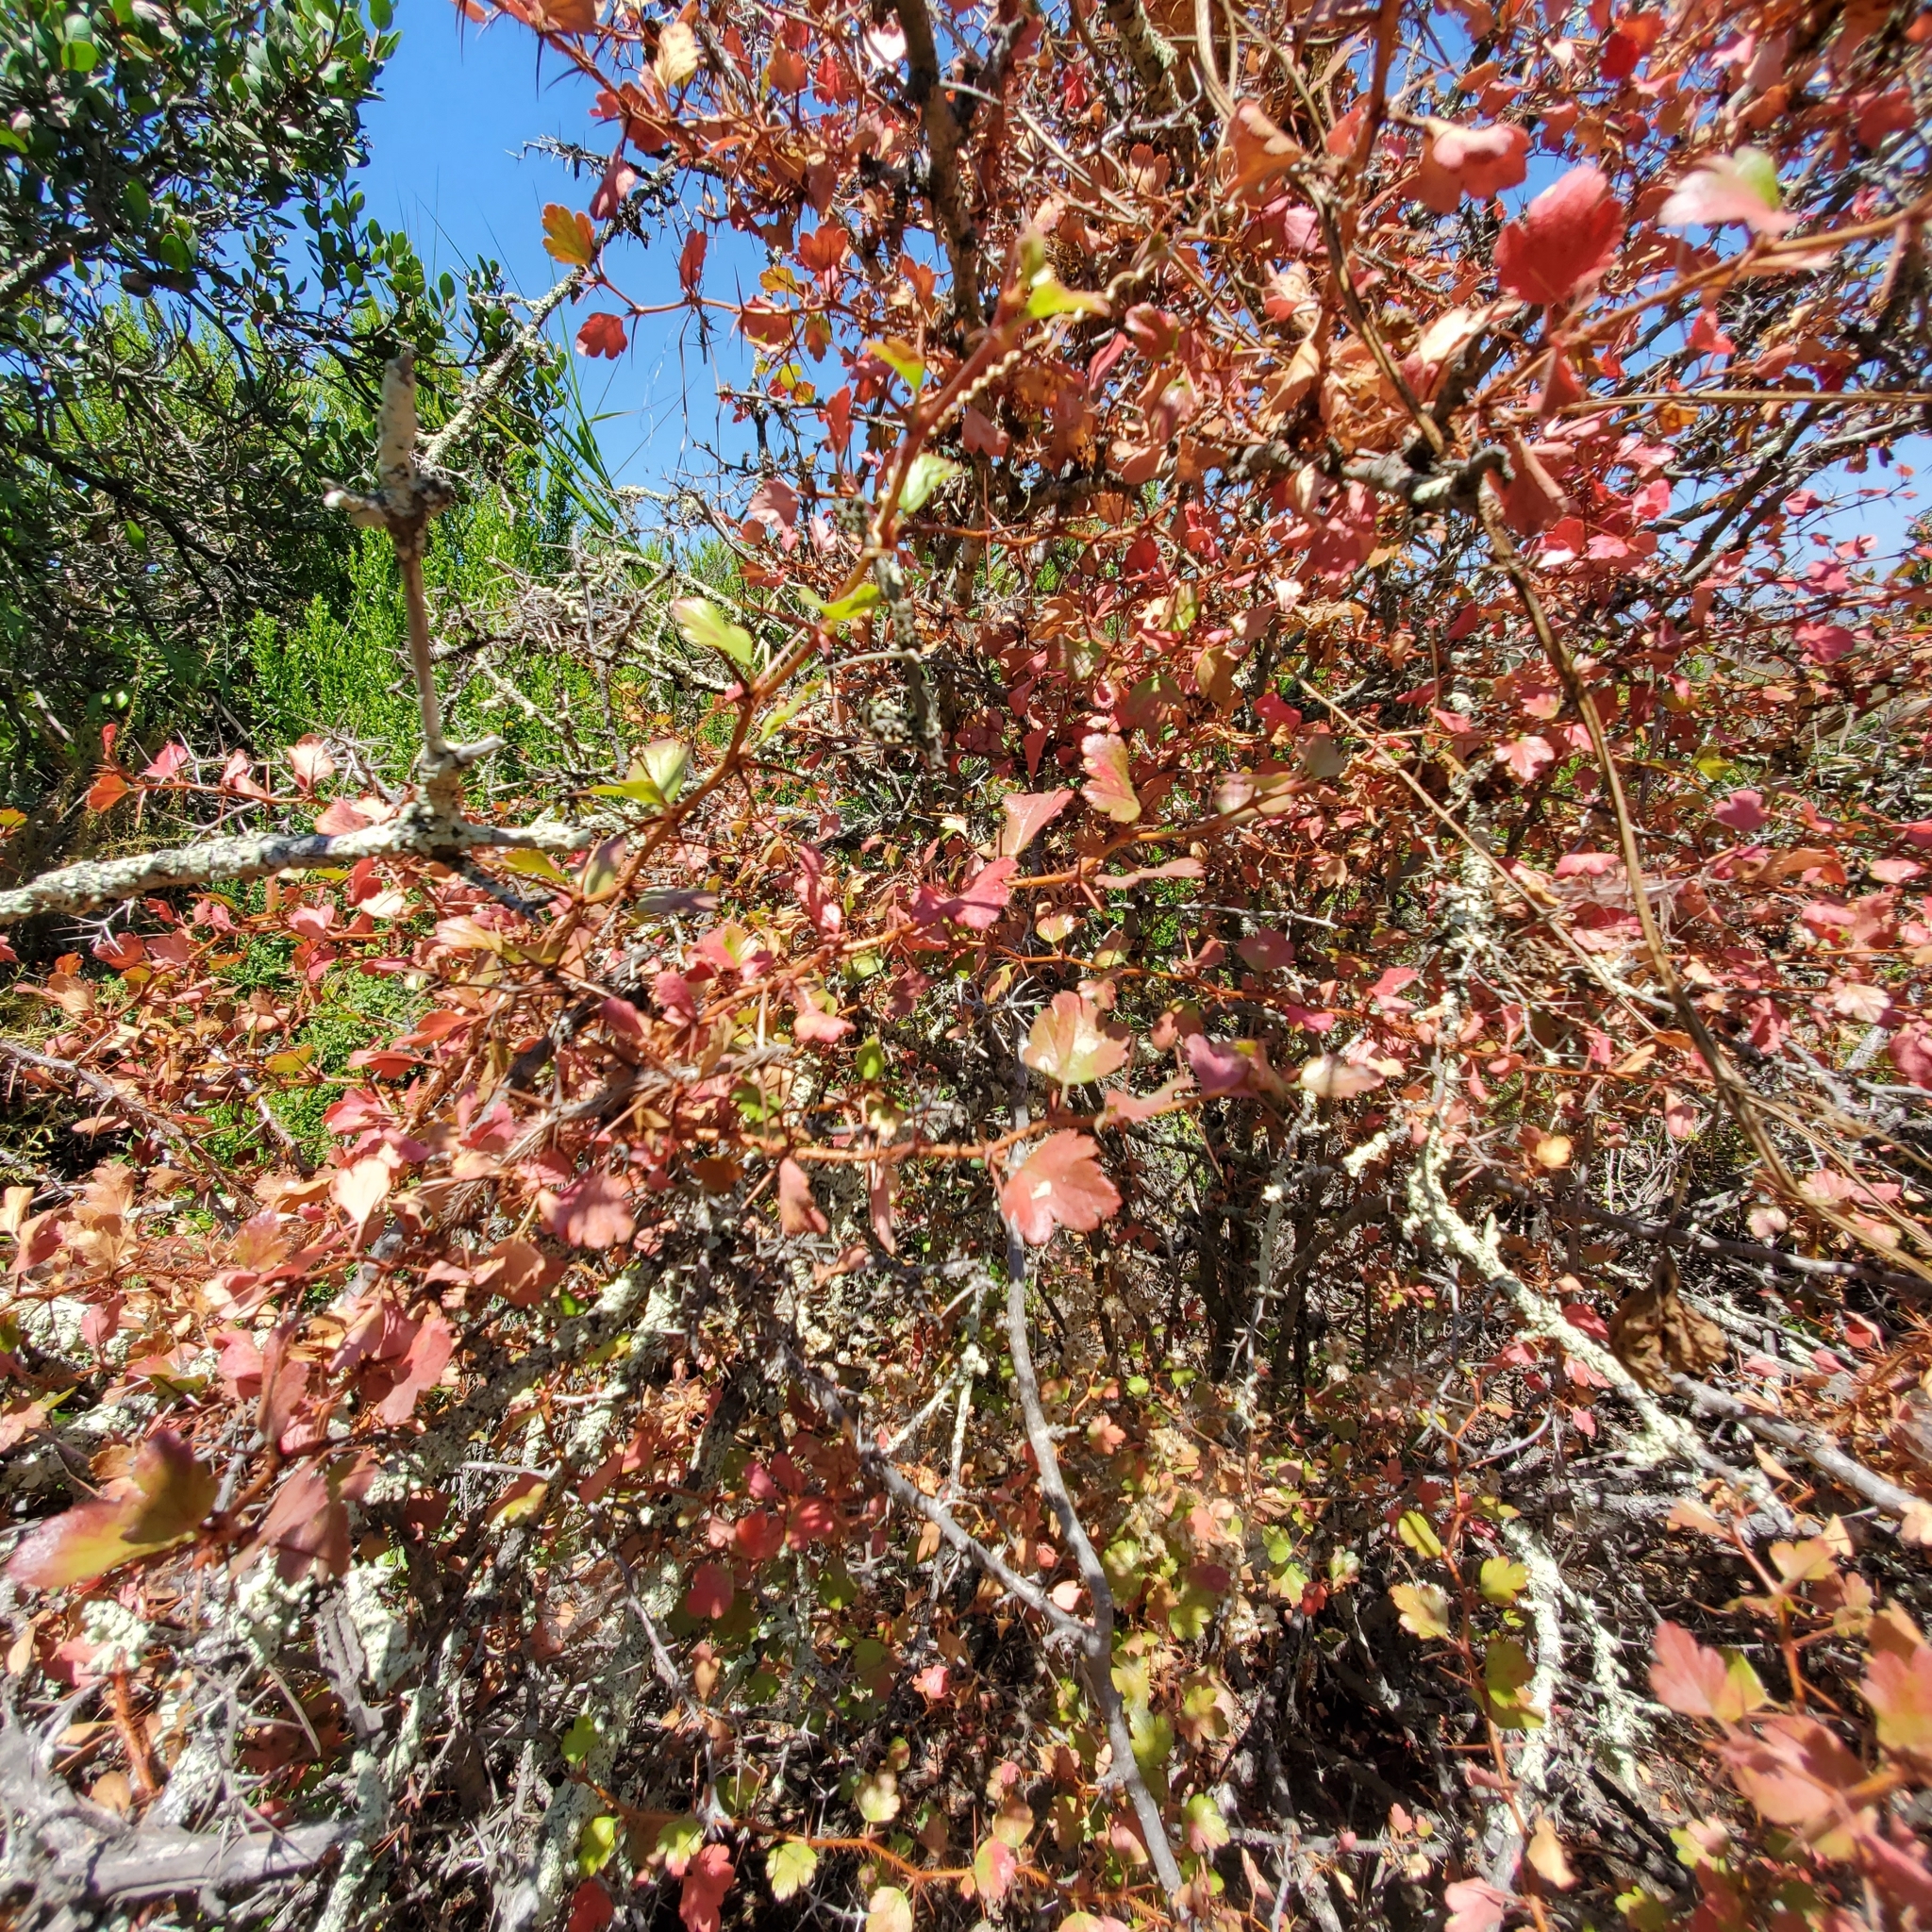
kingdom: Plantae
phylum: Tracheophyta
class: Magnoliopsida
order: Saxifragales
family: Grossulariaceae
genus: Ribes
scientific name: Ribes speciosum
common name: Fuchsia-flower gooseberry
